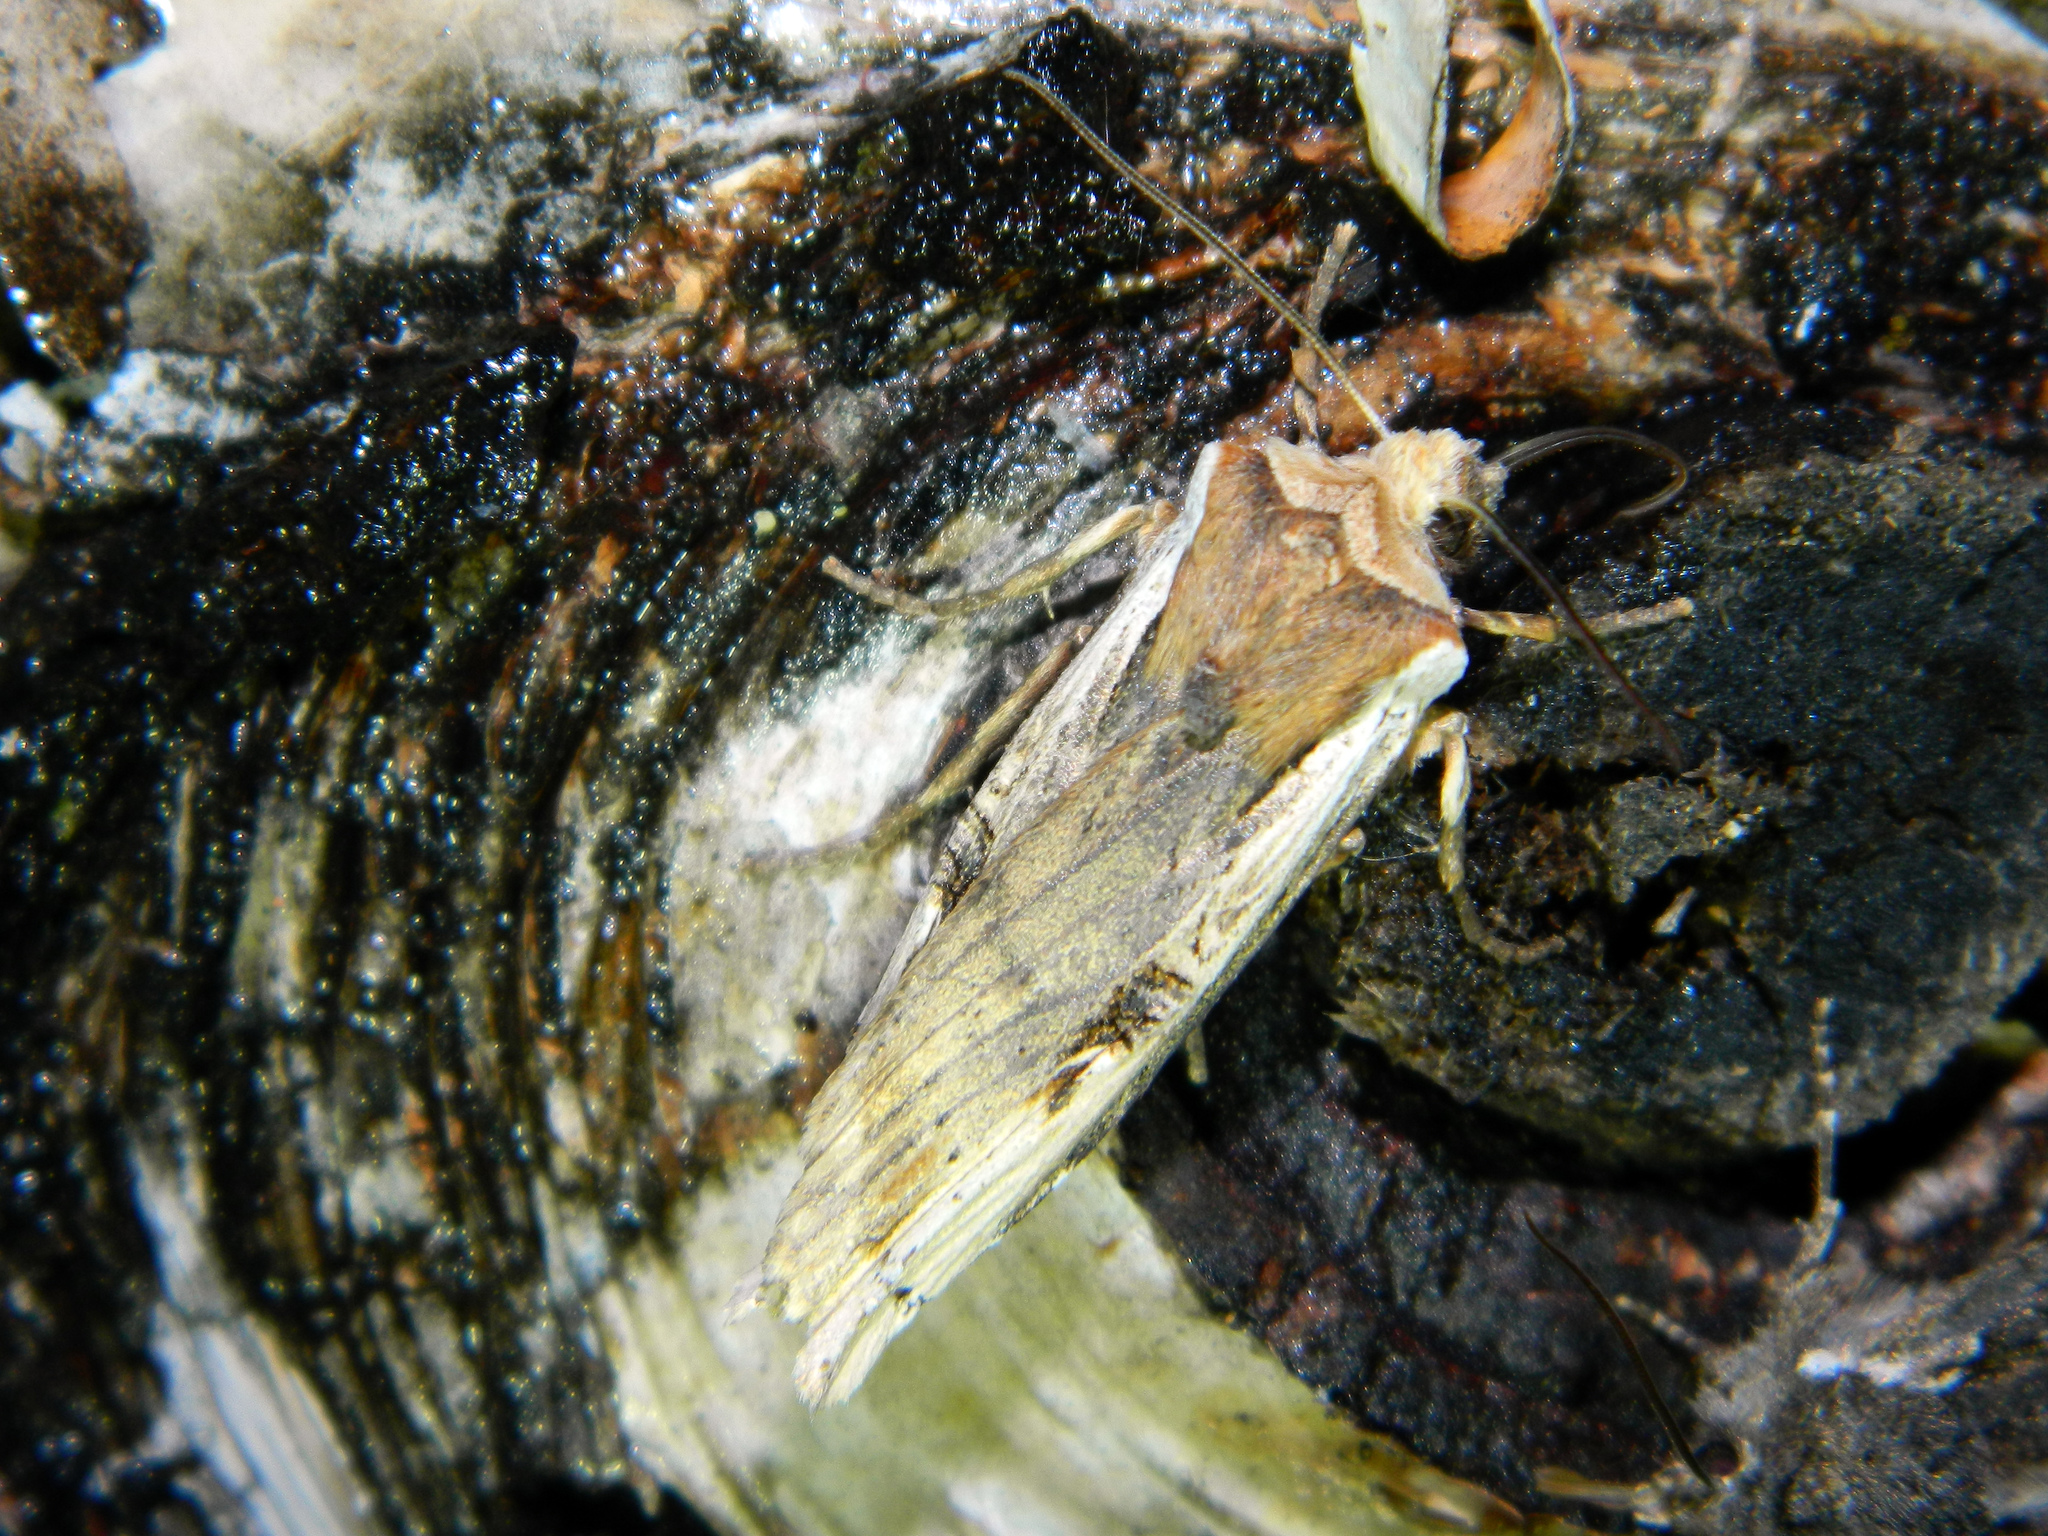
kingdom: Animalia
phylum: Arthropoda
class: Insecta
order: Lepidoptera
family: Noctuidae
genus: Xylena
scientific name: Xylena curvimacula
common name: Dot-and-dash swordgrass moth
